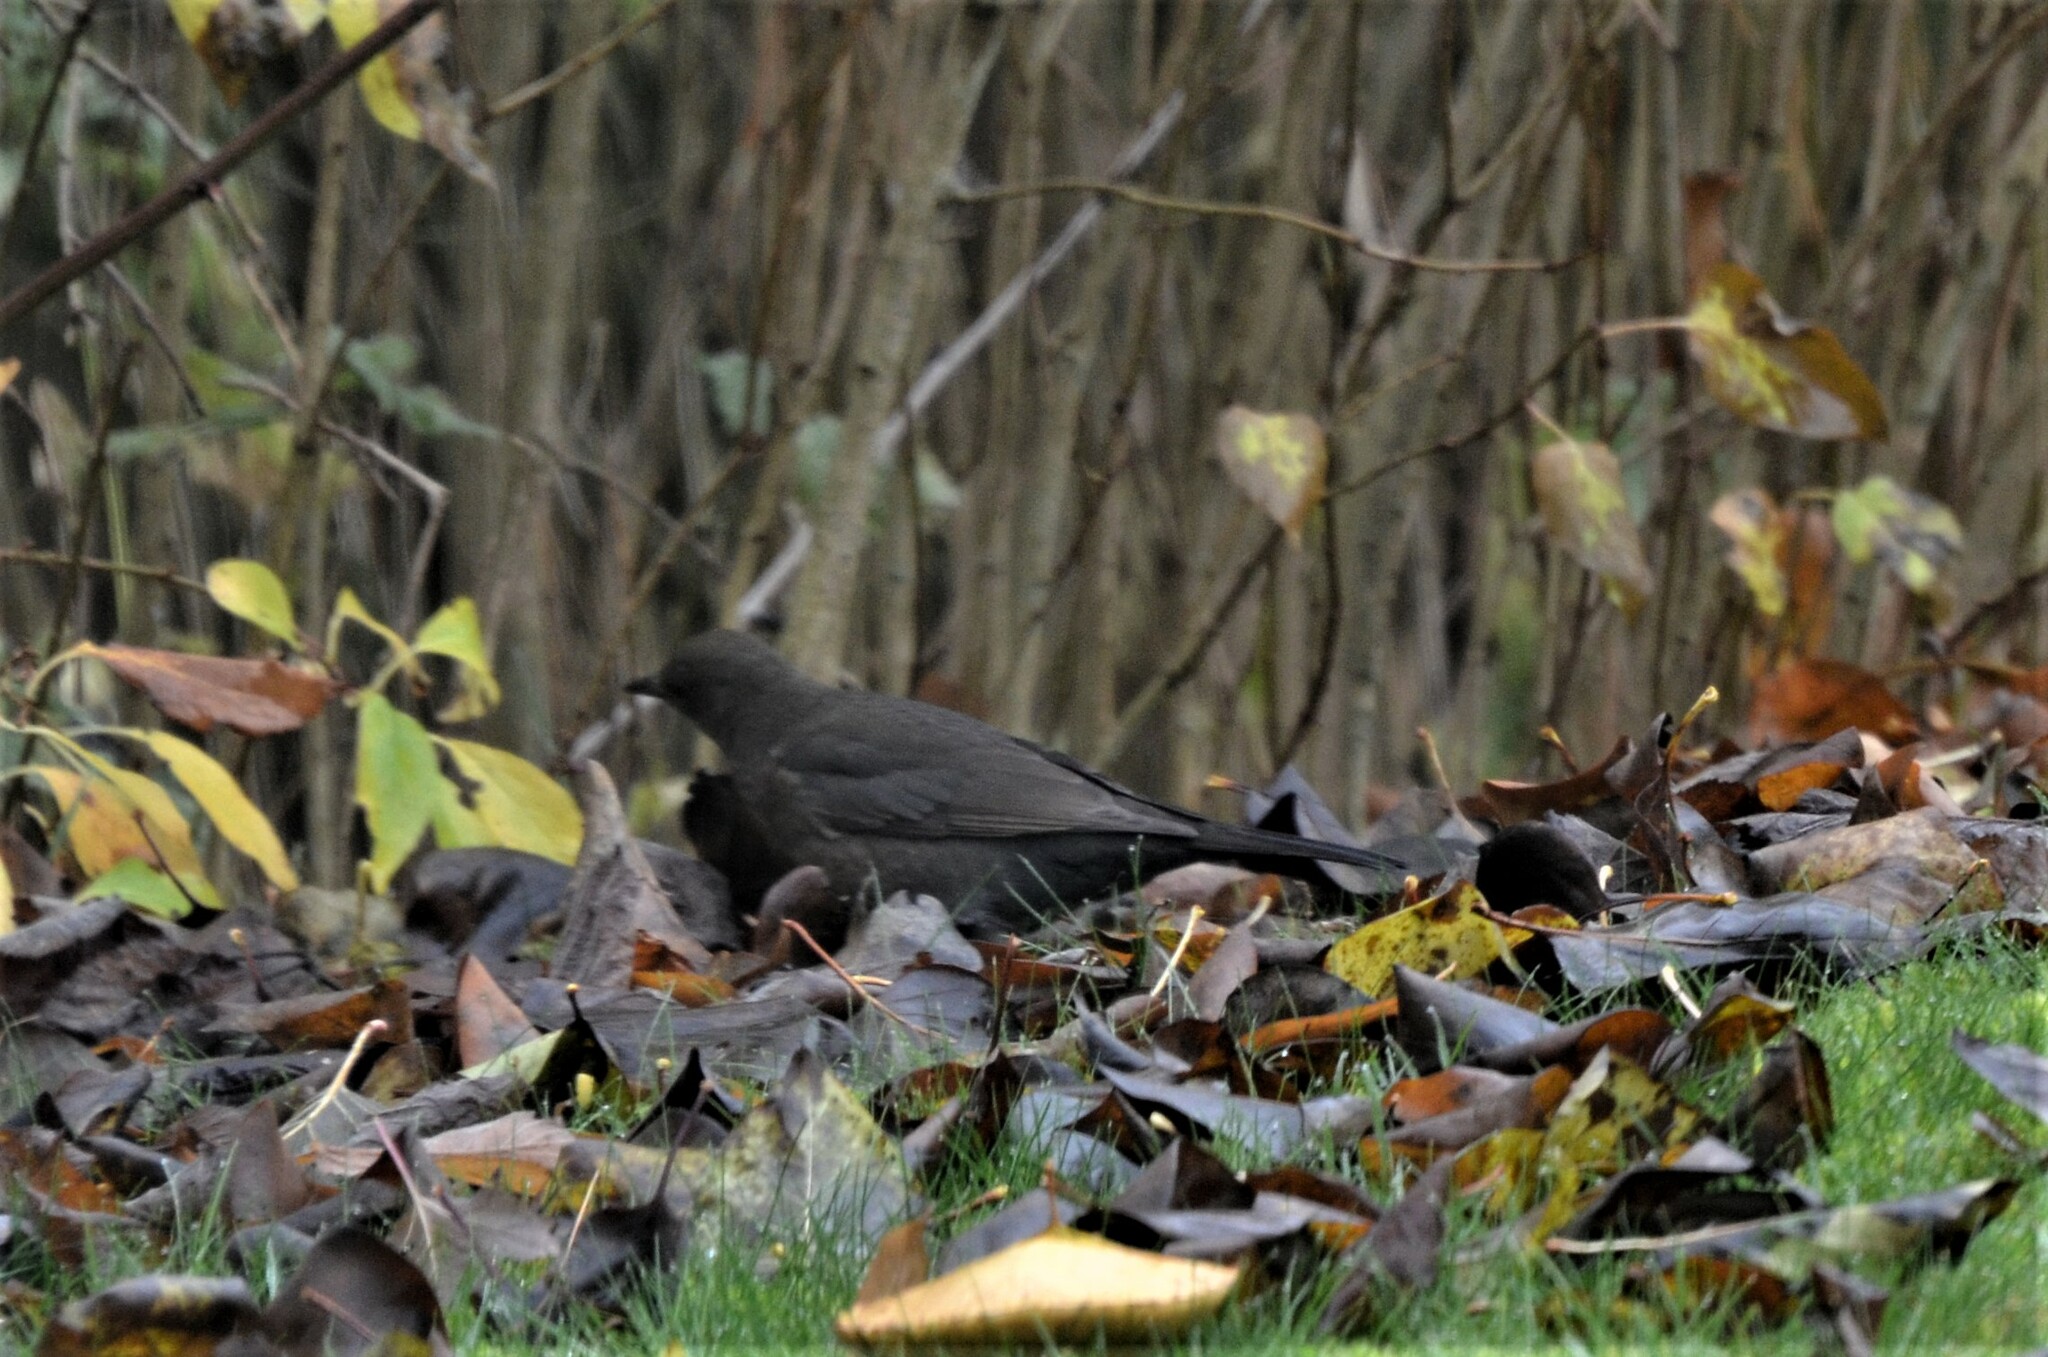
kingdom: Animalia
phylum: Chordata
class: Aves
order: Passeriformes
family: Turdidae
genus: Turdus
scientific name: Turdus merula
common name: Common blackbird
